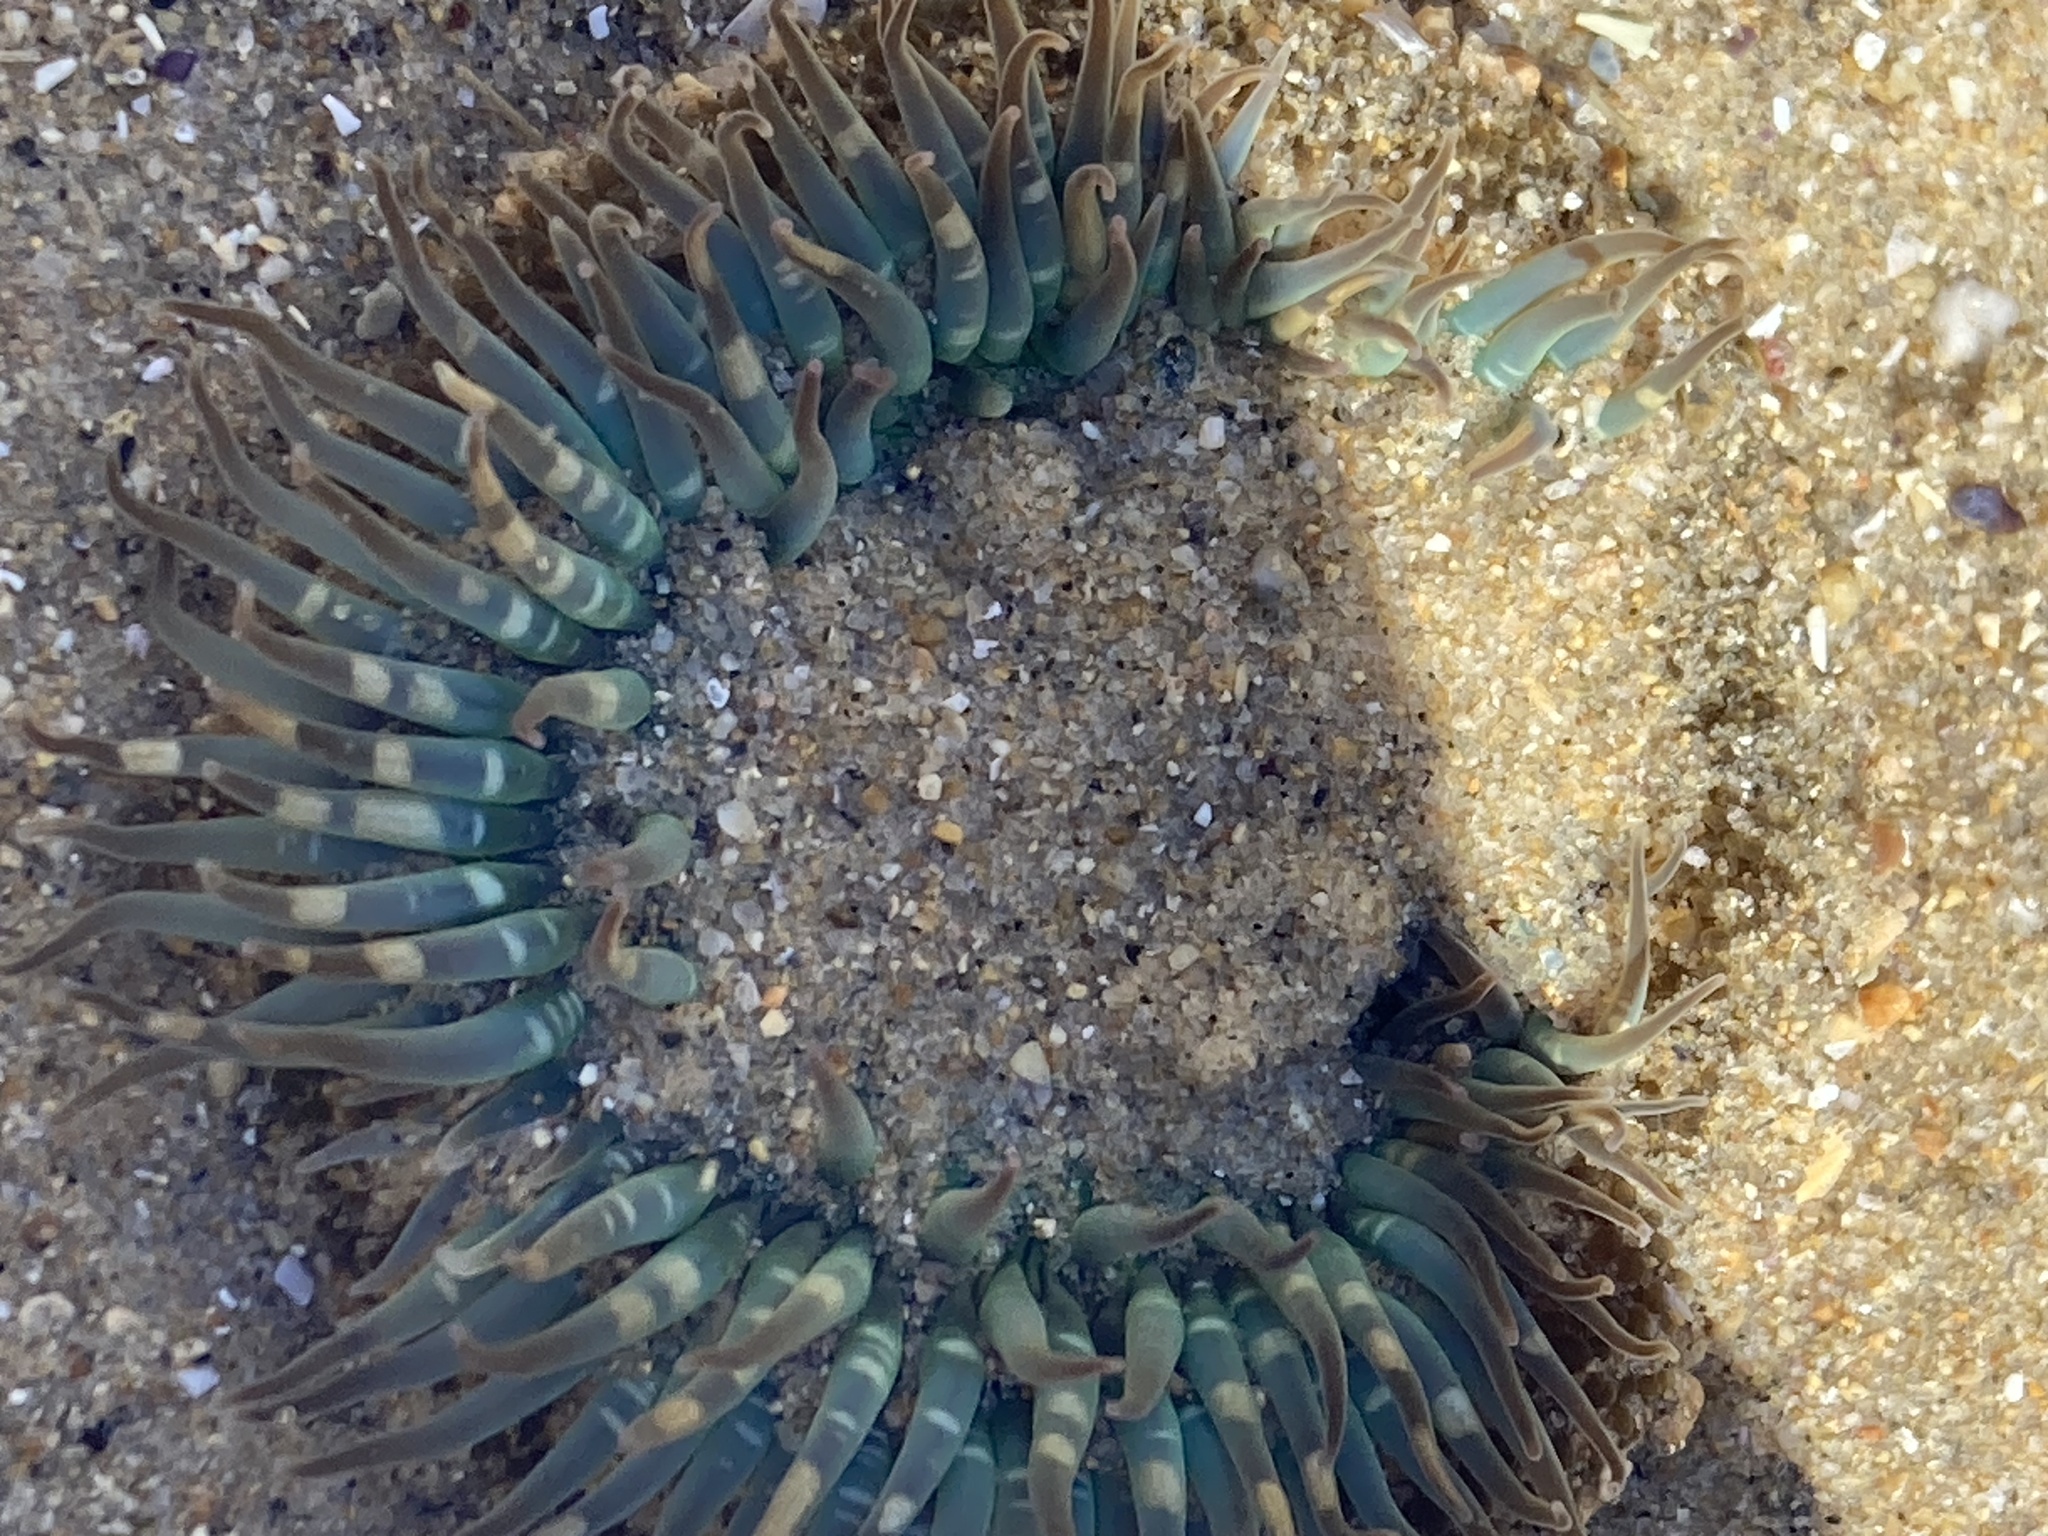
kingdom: Animalia
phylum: Cnidaria
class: Anthozoa
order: Actiniaria
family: Actiniidae
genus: Anthopleura
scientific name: Anthopleura sola
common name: Sun anemone
